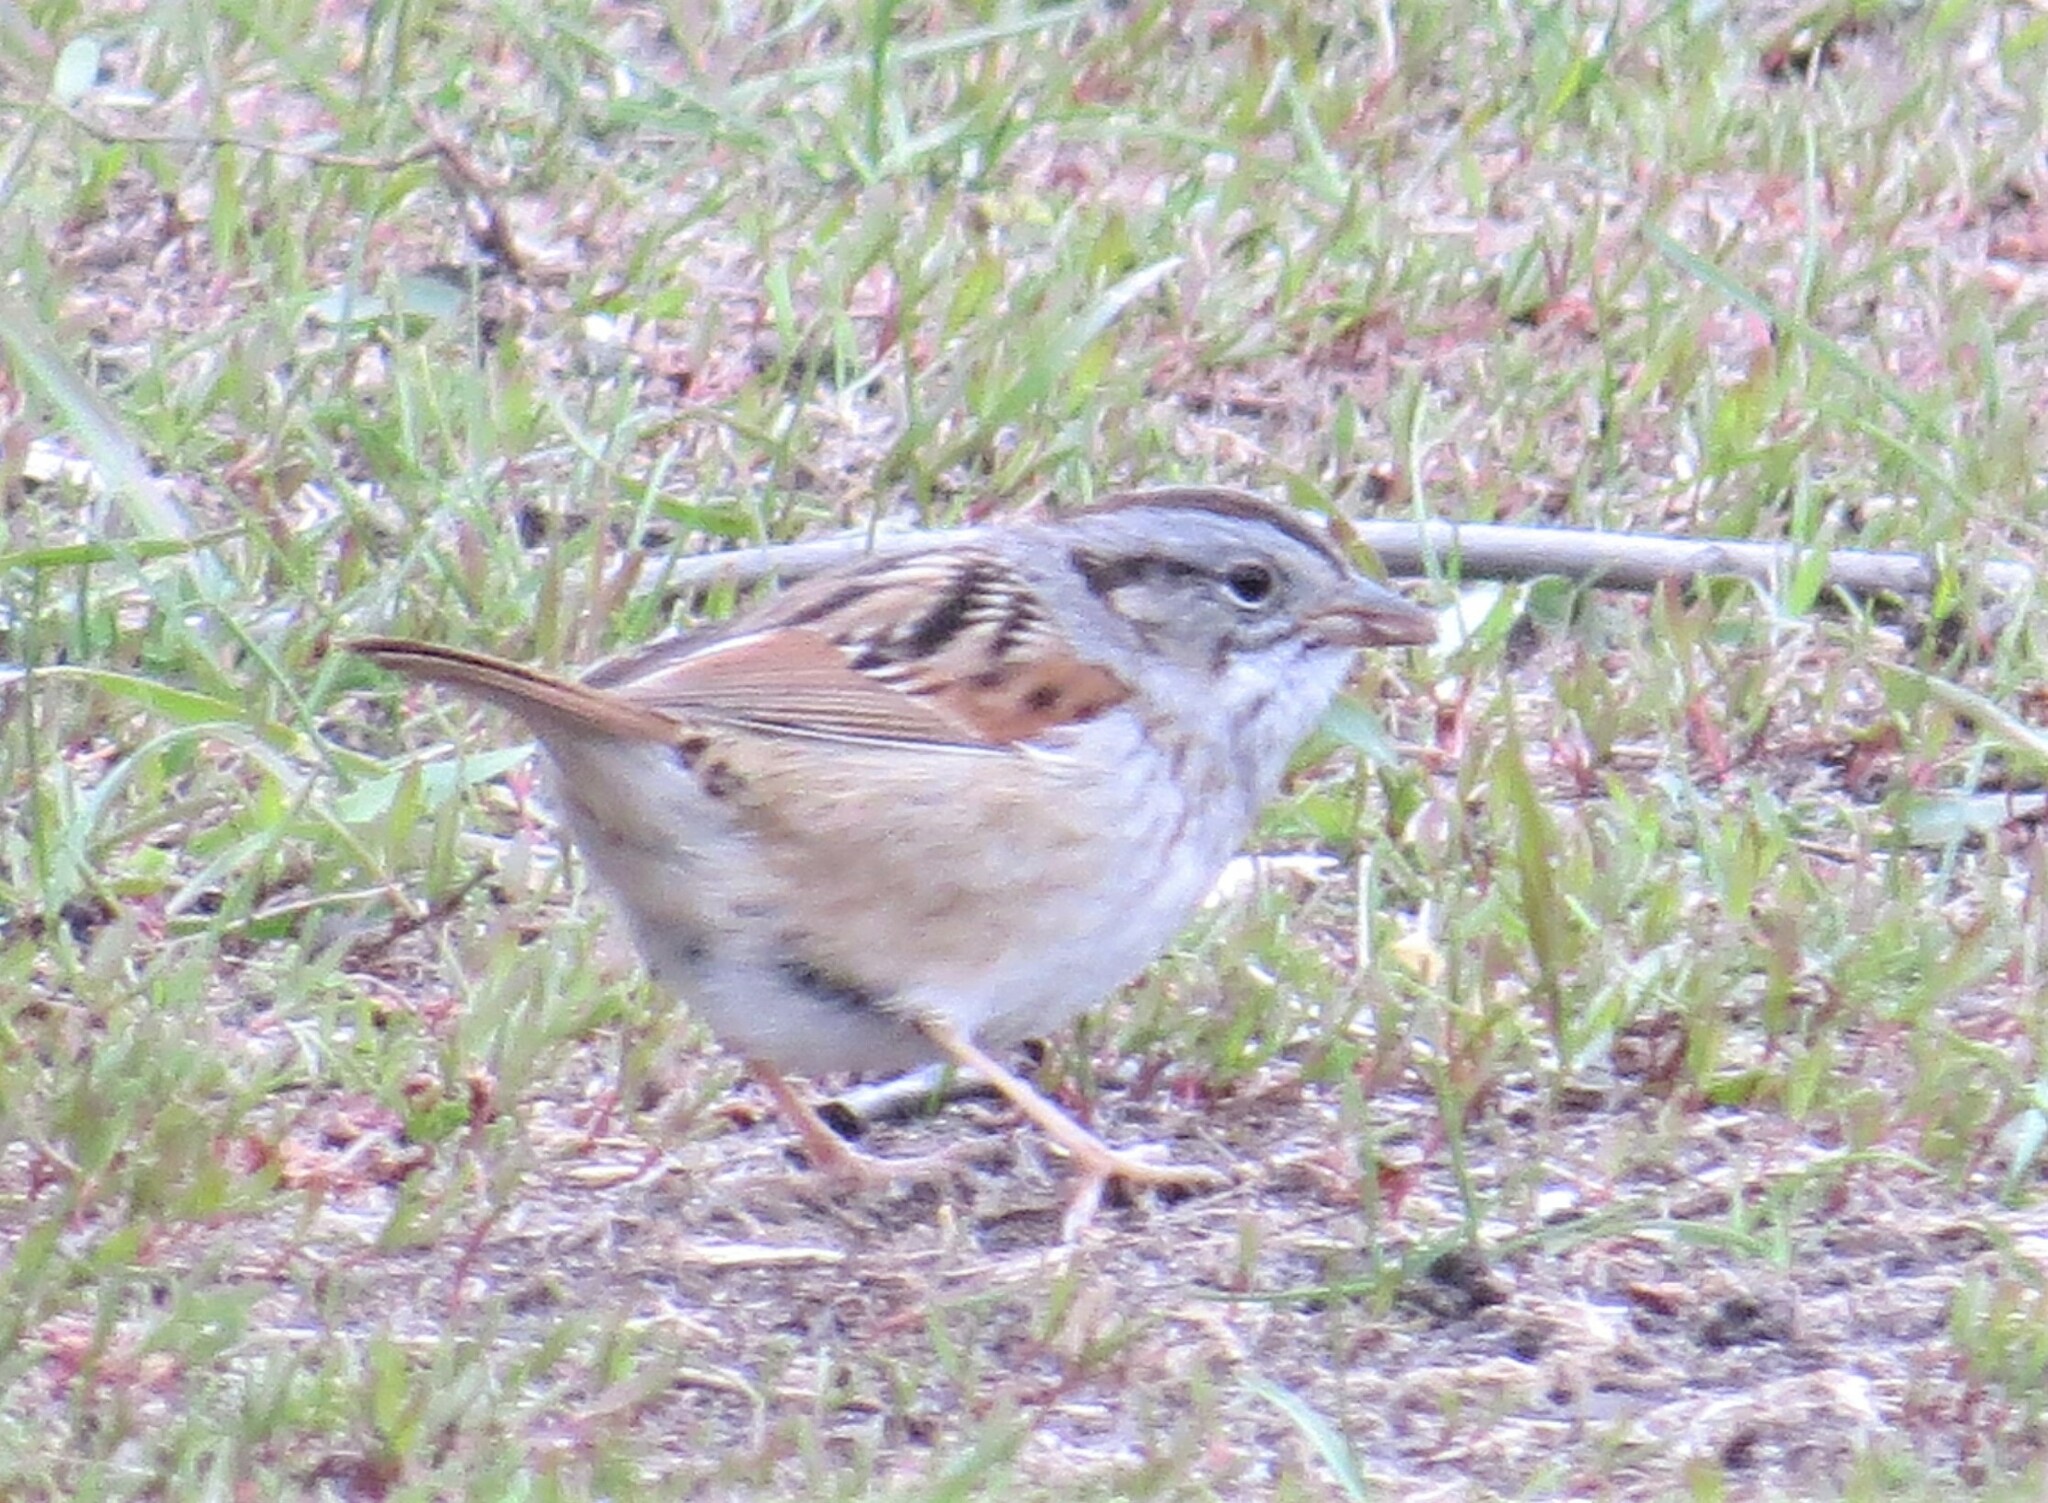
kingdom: Animalia
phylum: Chordata
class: Aves
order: Passeriformes
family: Passerellidae
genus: Melospiza
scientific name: Melospiza georgiana
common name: Swamp sparrow
